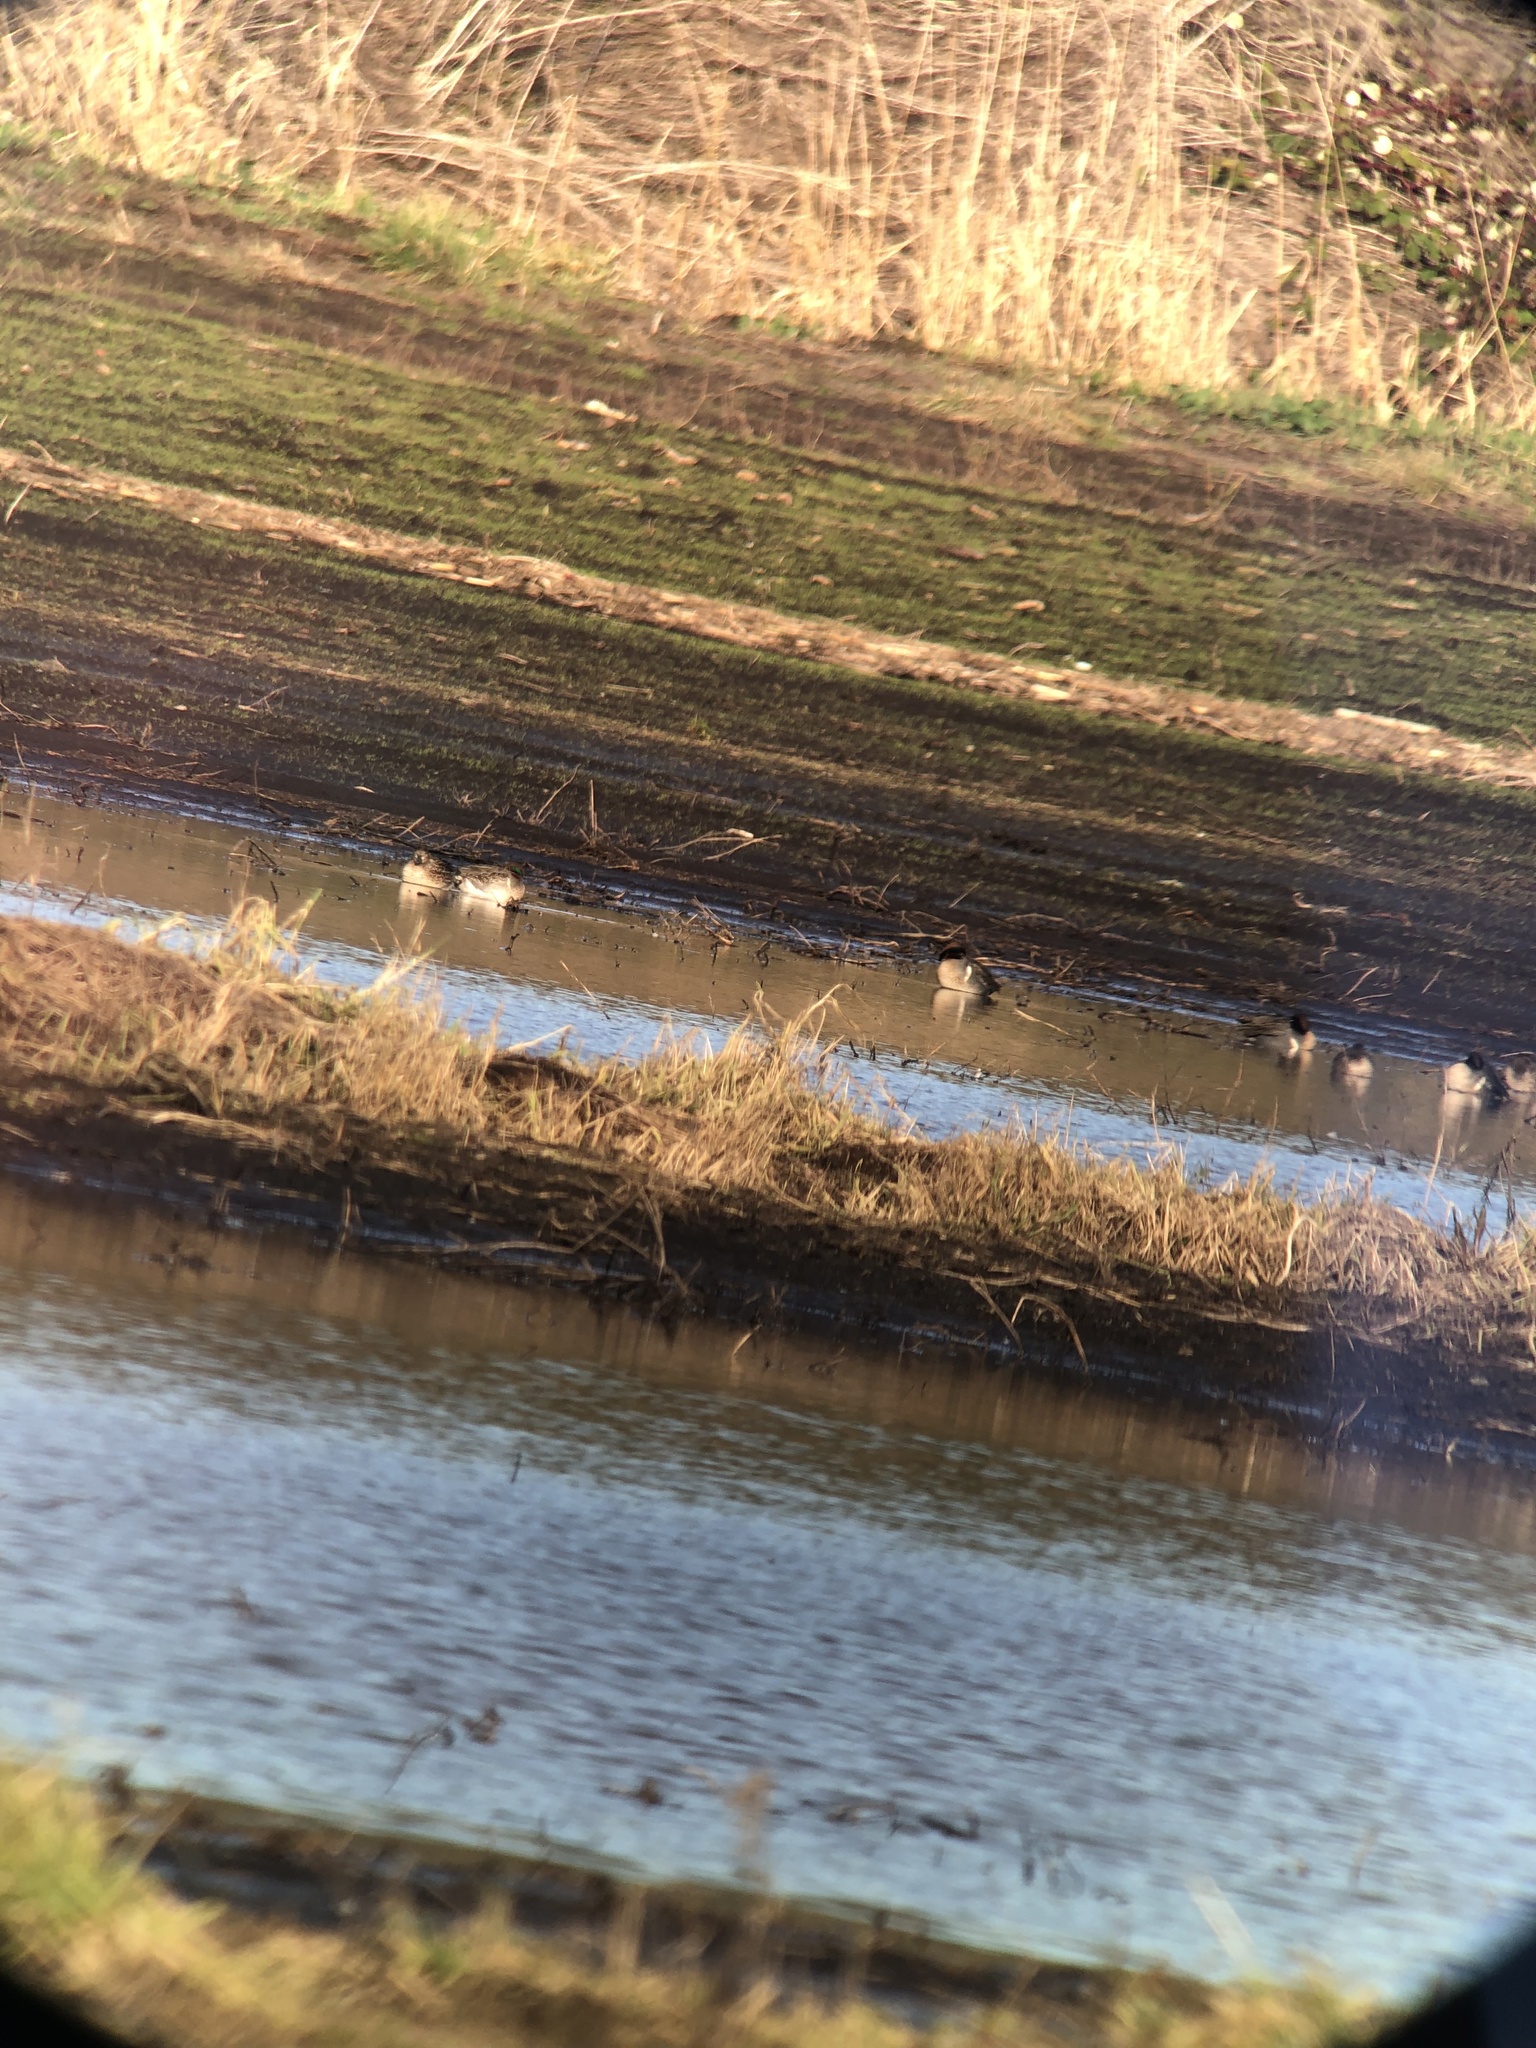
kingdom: Animalia
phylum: Chordata
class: Aves
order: Anseriformes
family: Anatidae
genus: Anas
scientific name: Anas crecca
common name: Eurasian teal
